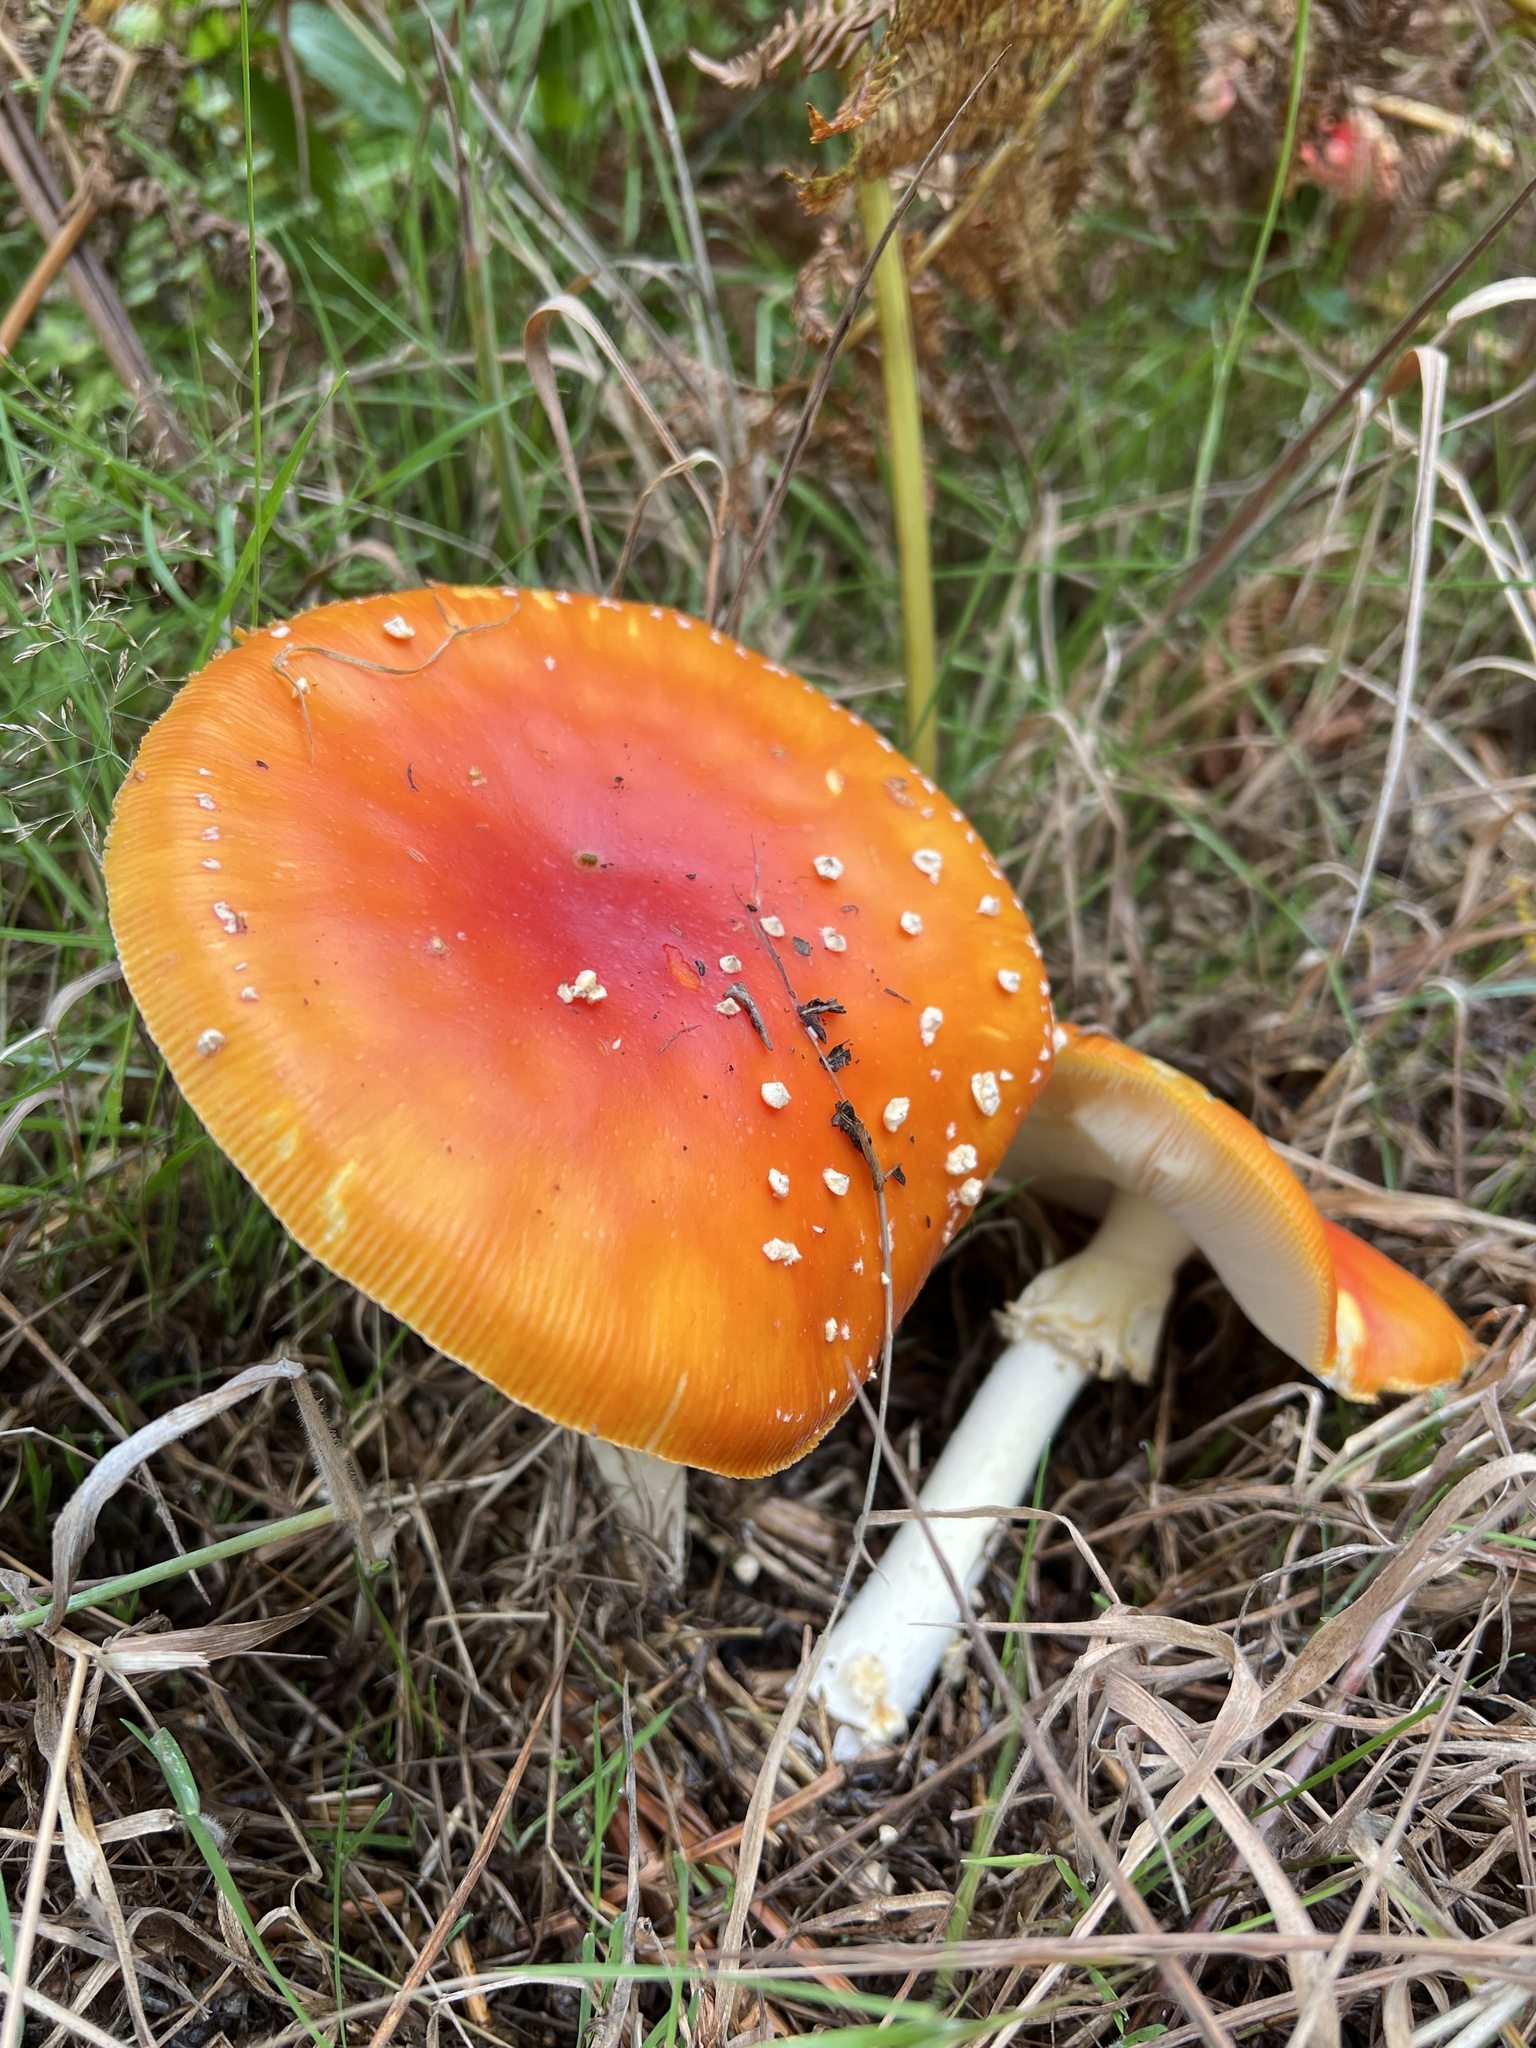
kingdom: Fungi
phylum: Basidiomycota
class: Agaricomycetes
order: Agaricales
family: Amanitaceae
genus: Amanita
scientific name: Amanita muscaria
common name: Fly agaric
